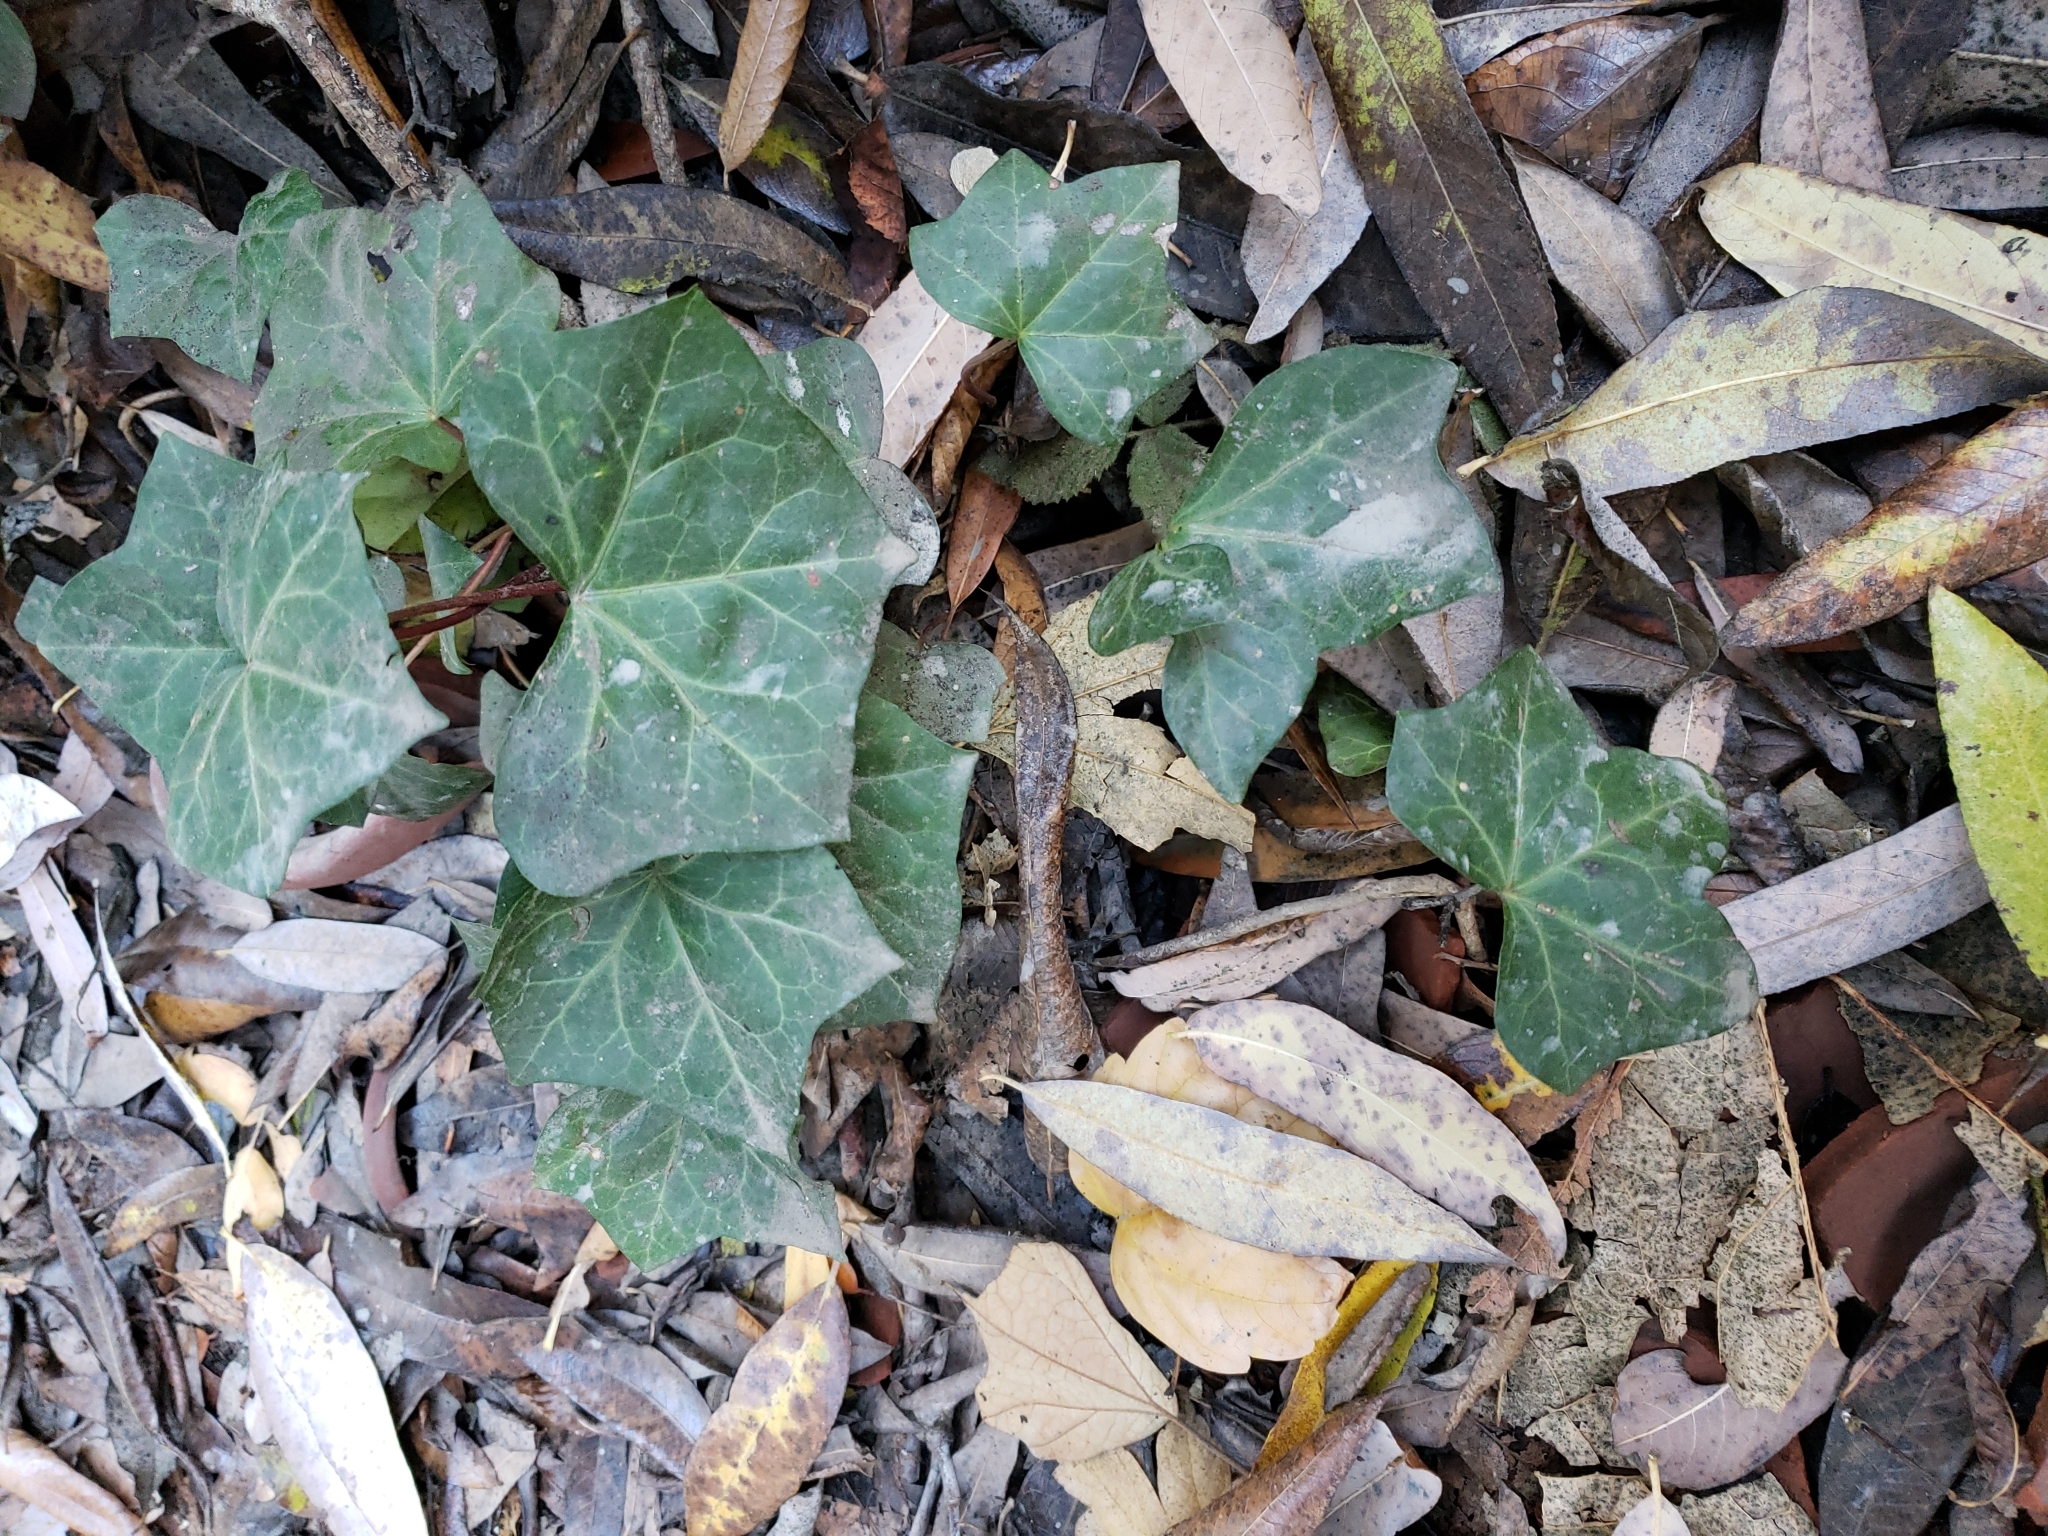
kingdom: Plantae
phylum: Tracheophyta
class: Magnoliopsida
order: Apiales
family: Araliaceae
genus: Hedera
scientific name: Hedera helix
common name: Ivy
